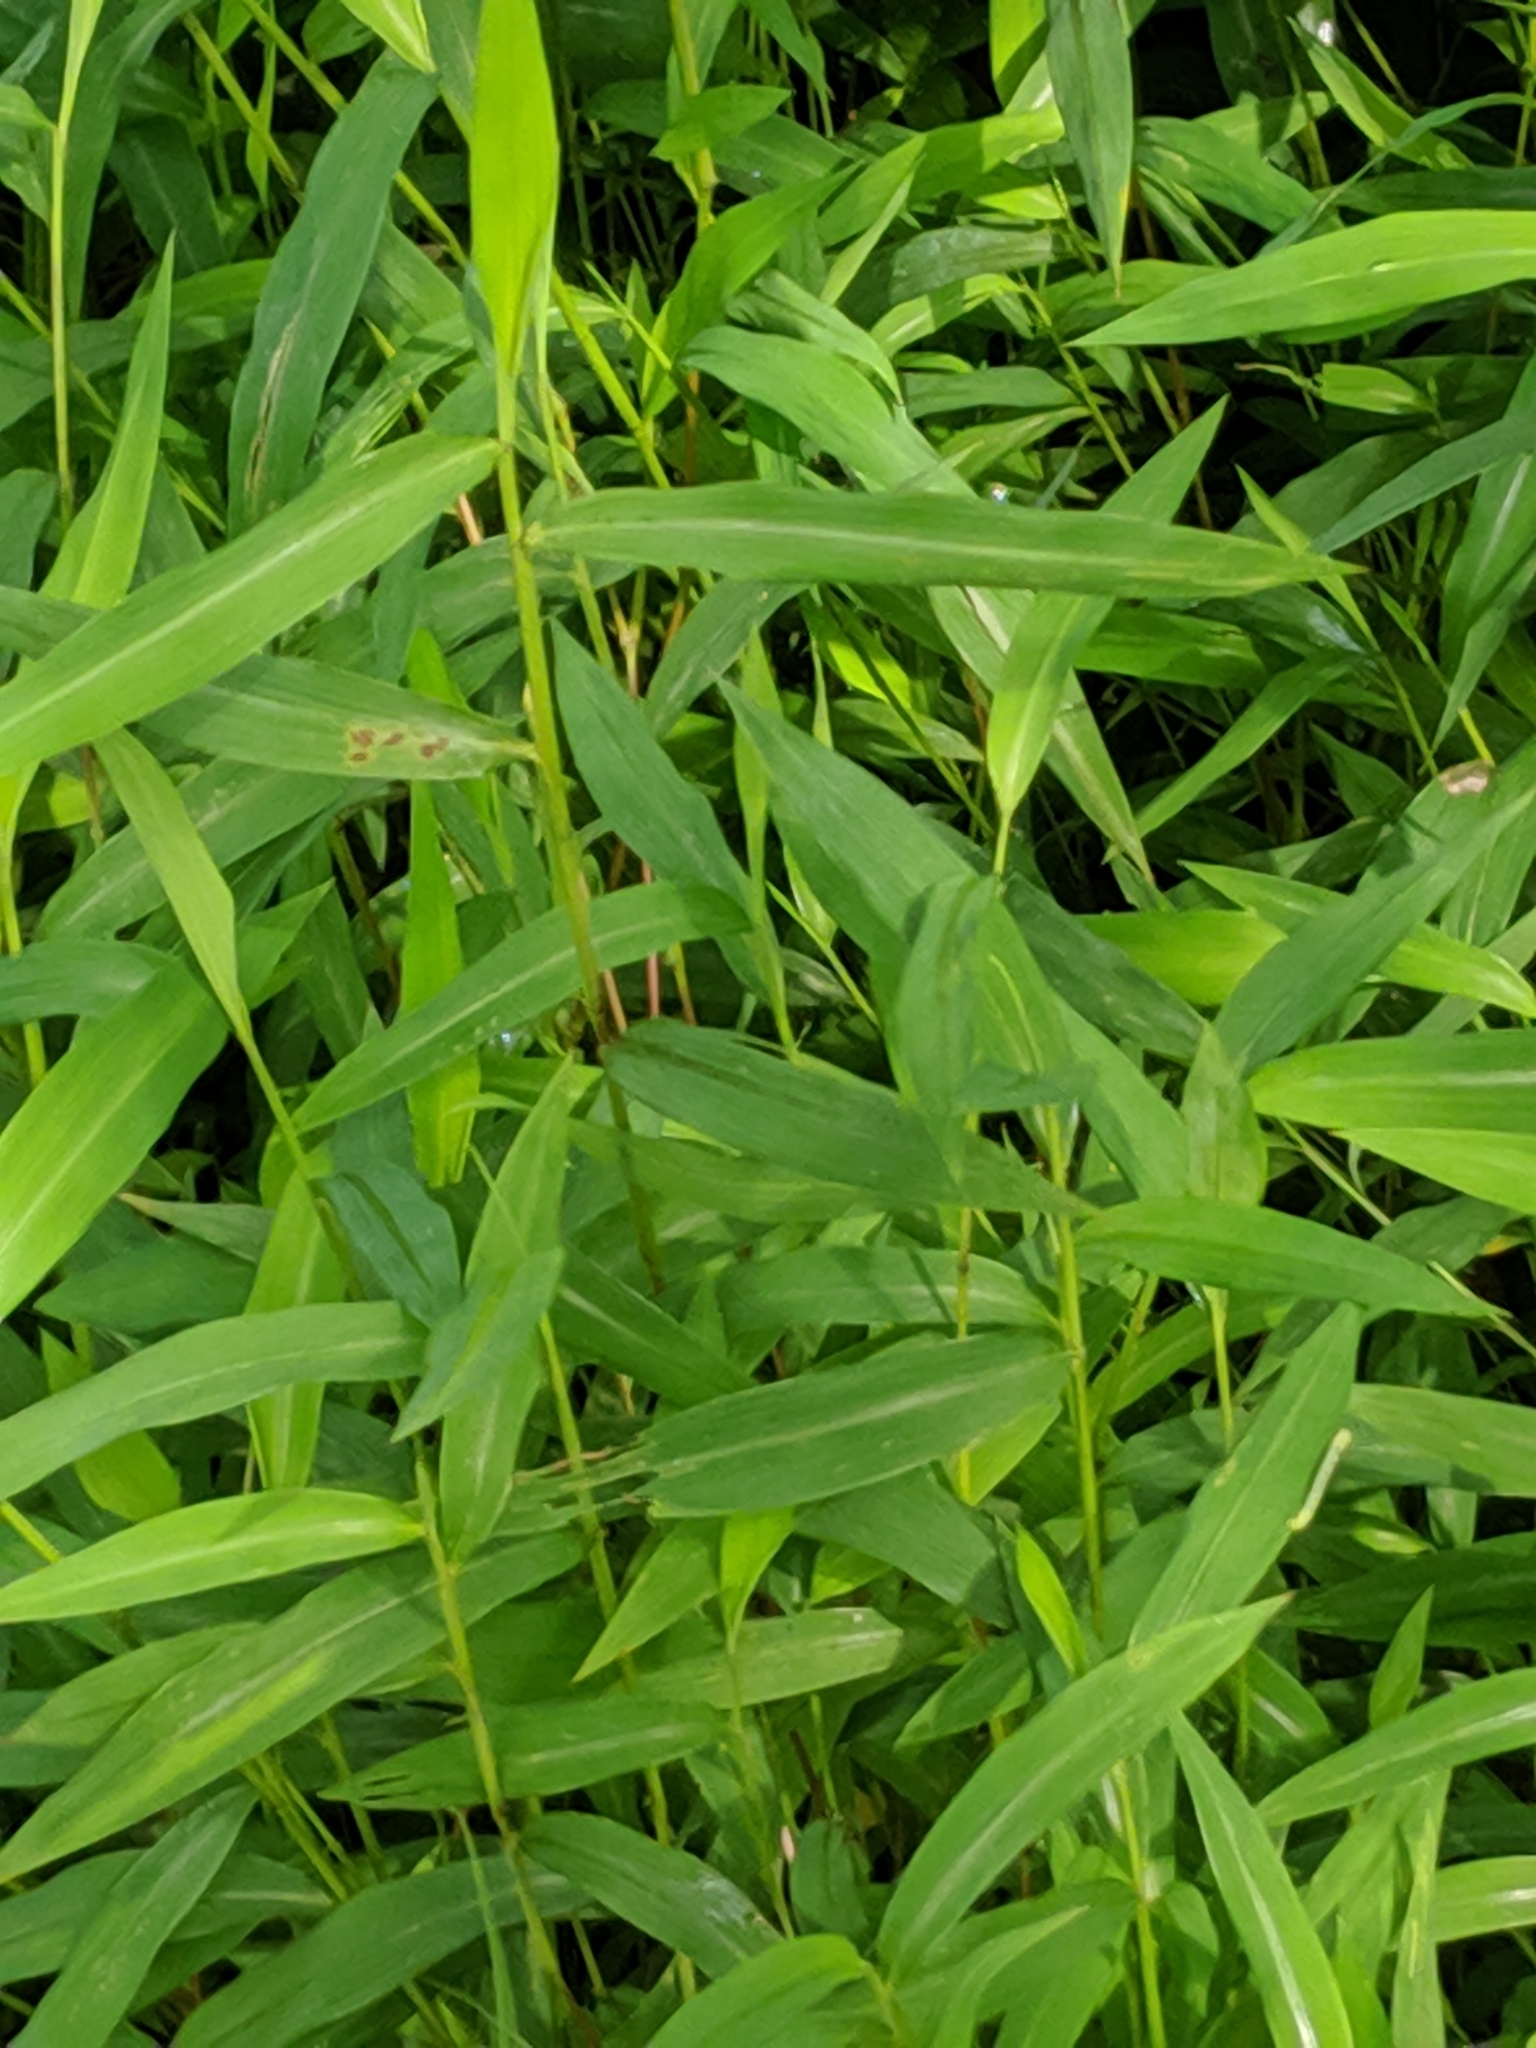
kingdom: Plantae
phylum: Tracheophyta
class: Liliopsida
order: Poales
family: Poaceae
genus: Microstegium
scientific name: Microstegium vimineum
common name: Japanese stiltgrass
